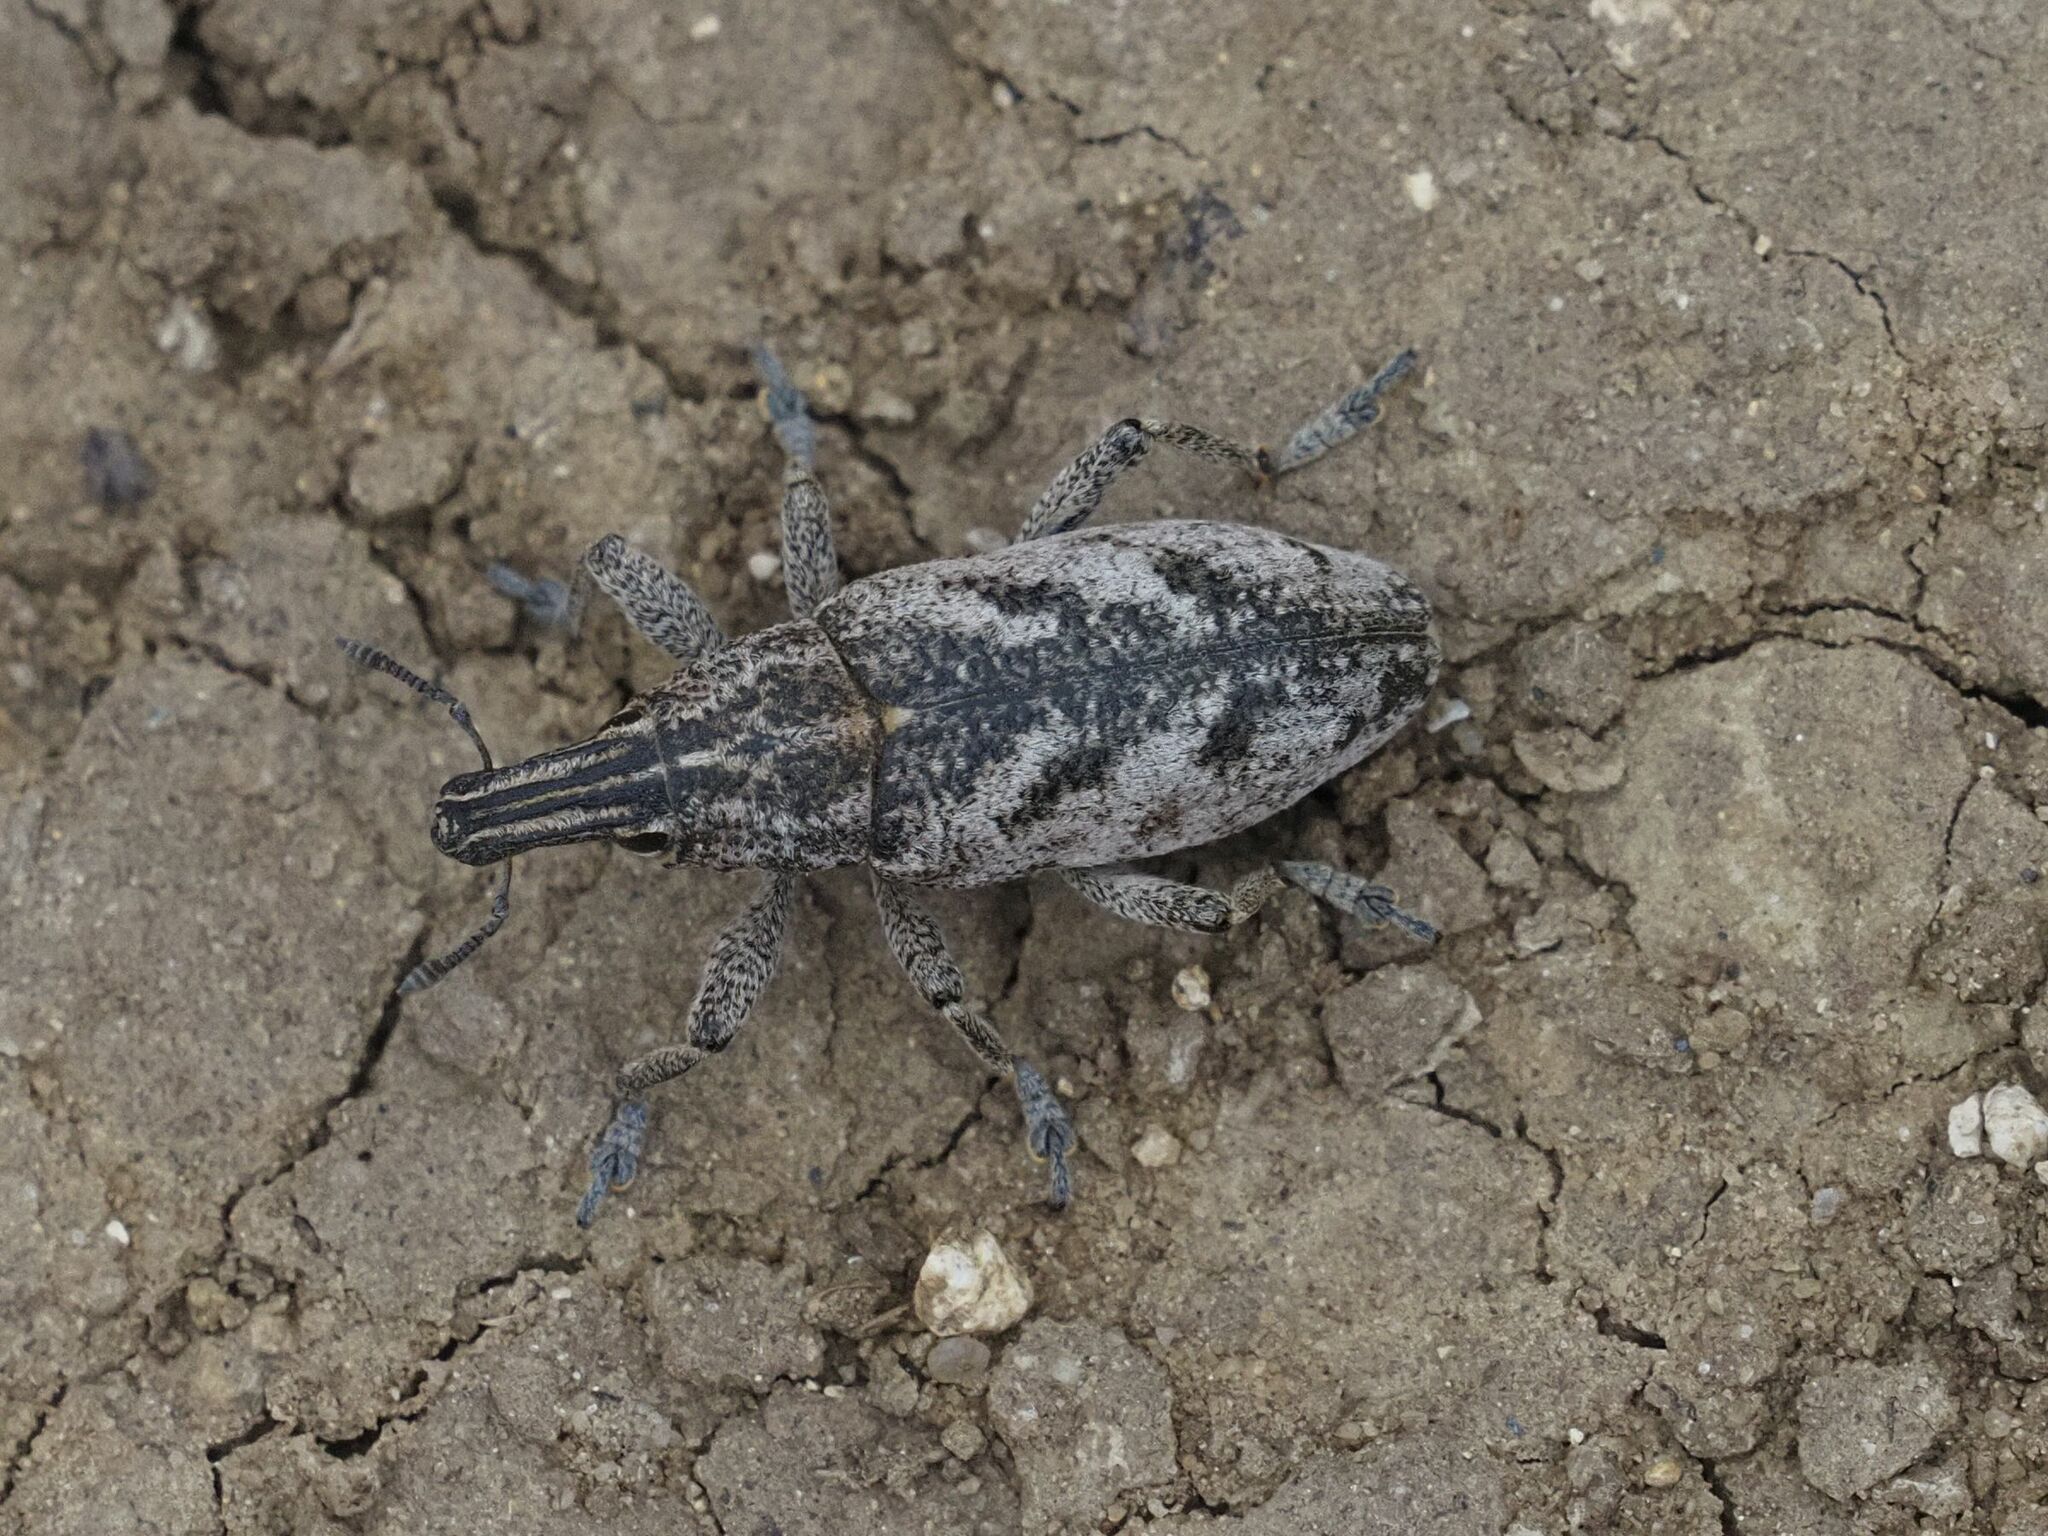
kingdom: Animalia
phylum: Arthropoda
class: Insecta
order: Coleoptera
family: Curculionidae
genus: Cleonis
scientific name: Cleonis pigra
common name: Large thistle weevil
